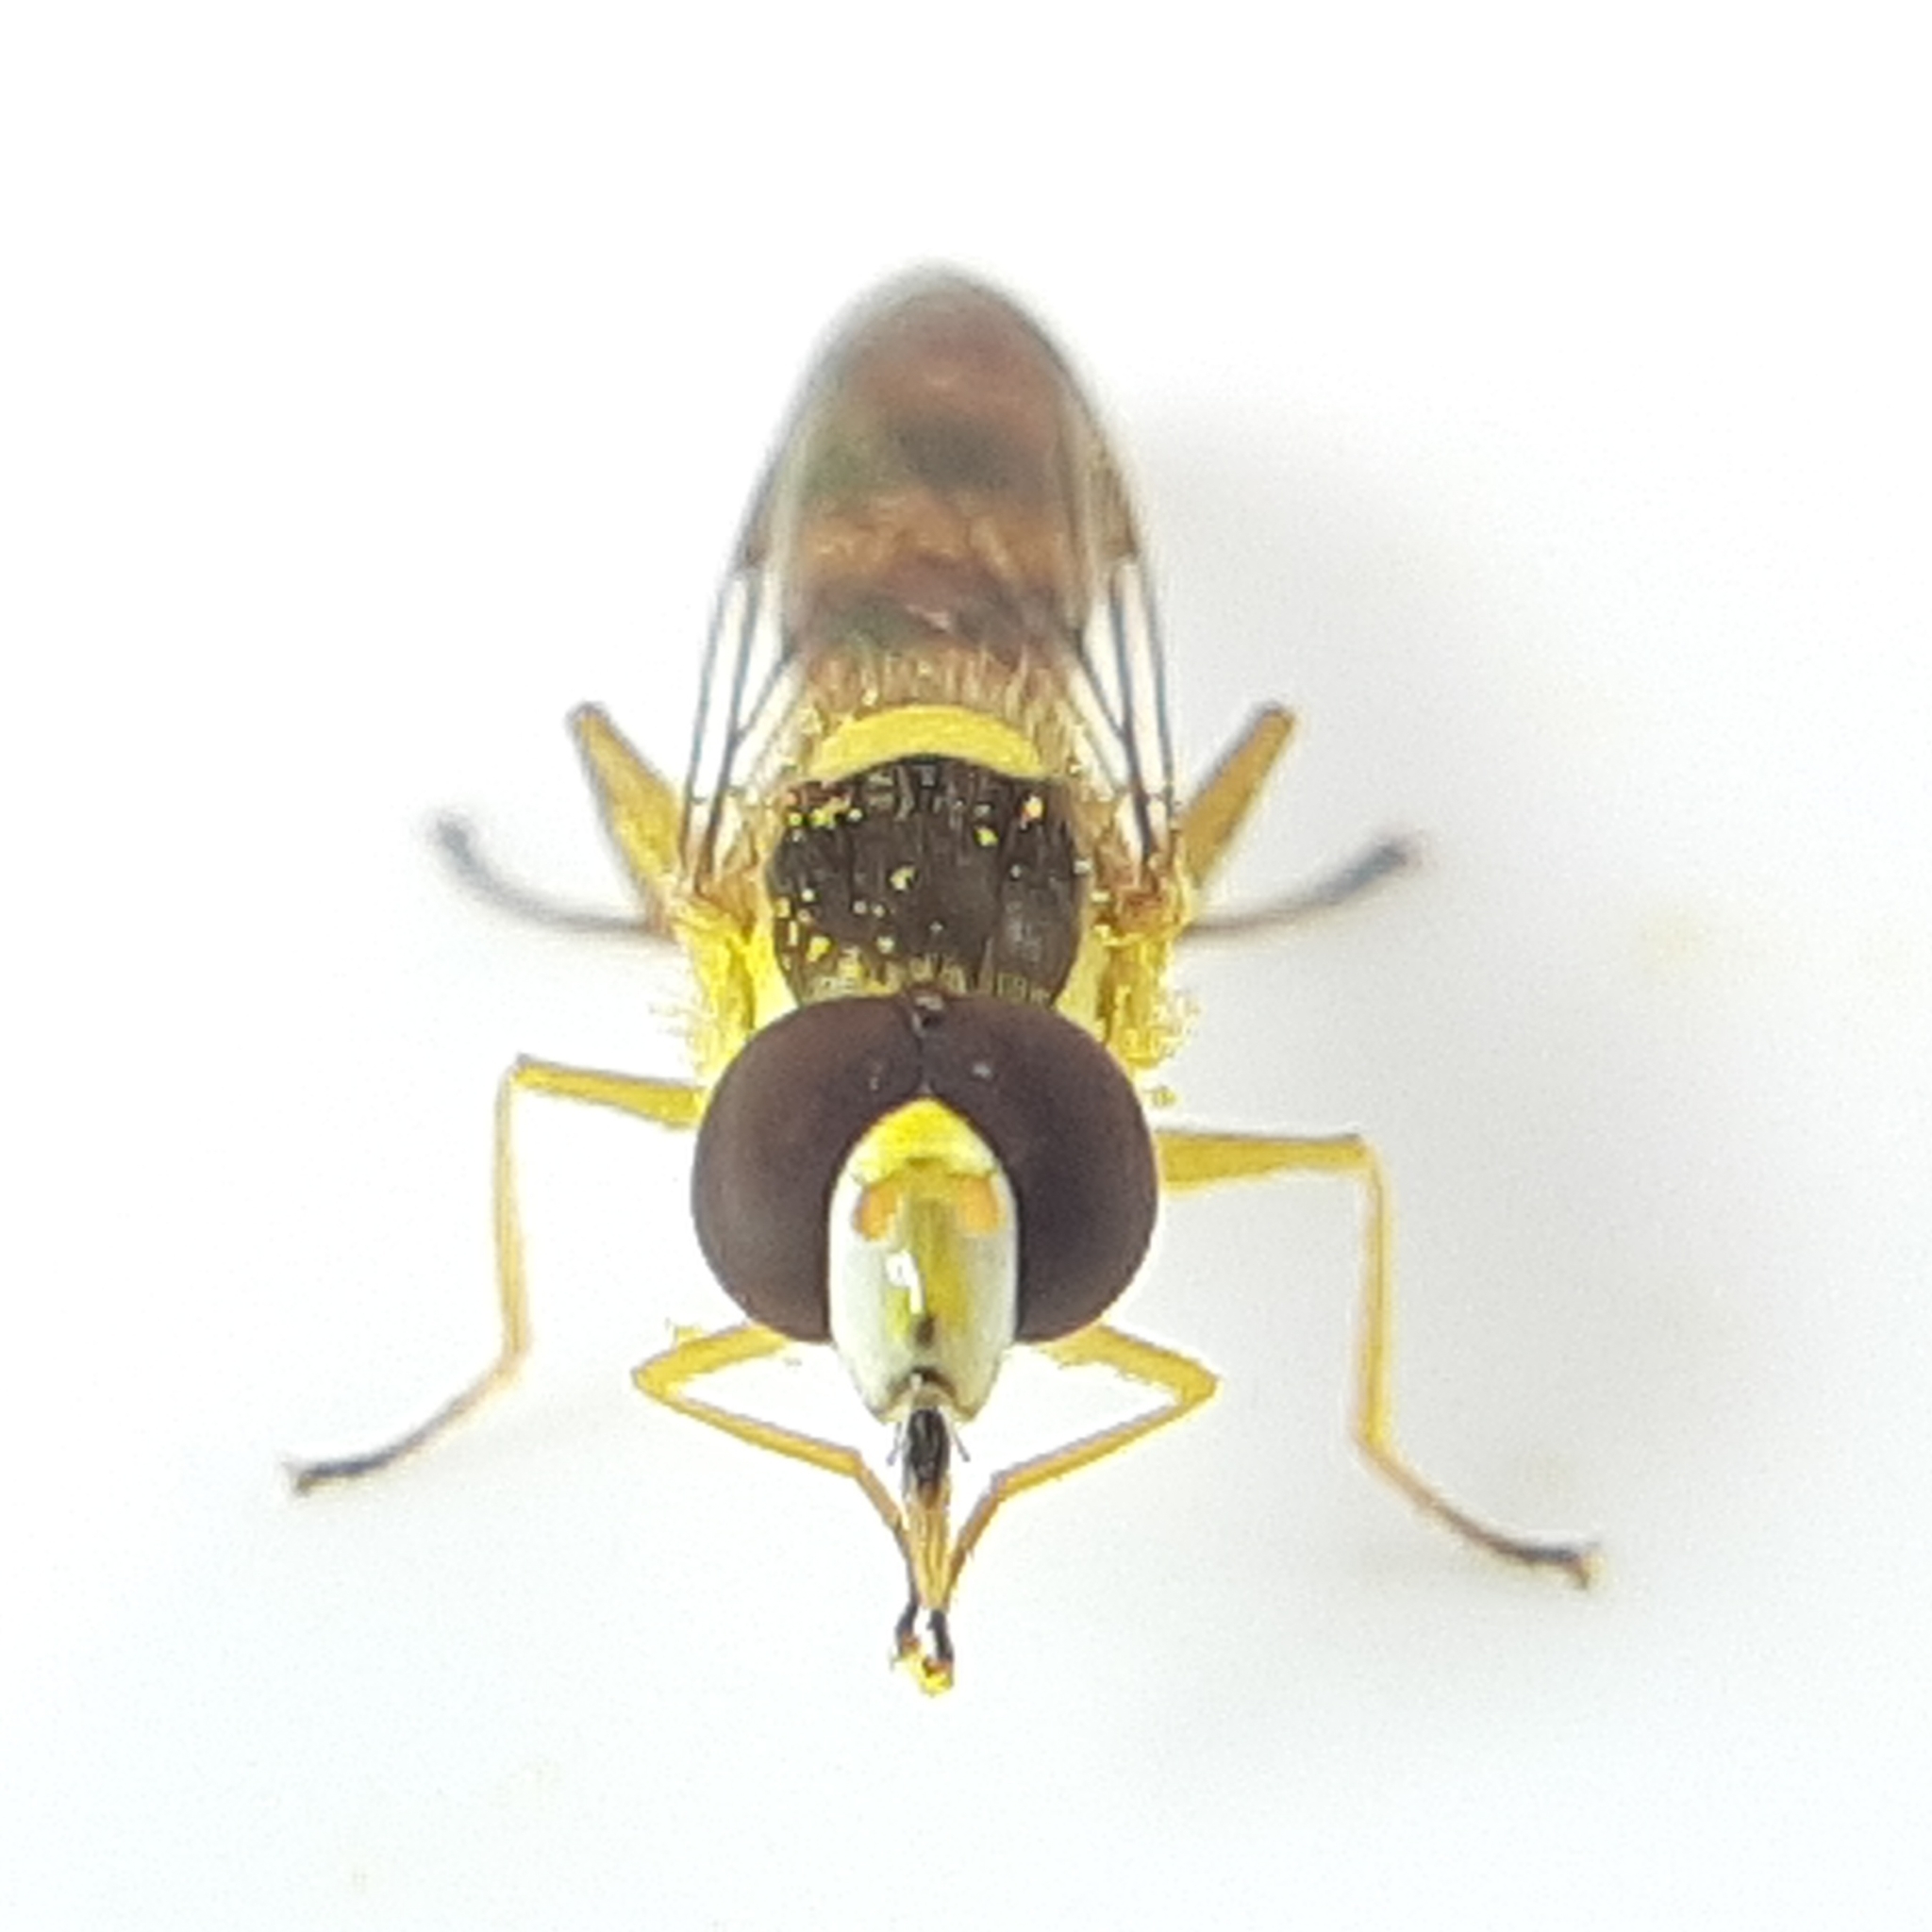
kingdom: Animalia
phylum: Arthropoda
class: Insecta
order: Diptera
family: Syrphidae
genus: Sphaerophoria
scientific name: Sphaerophoria philantha
